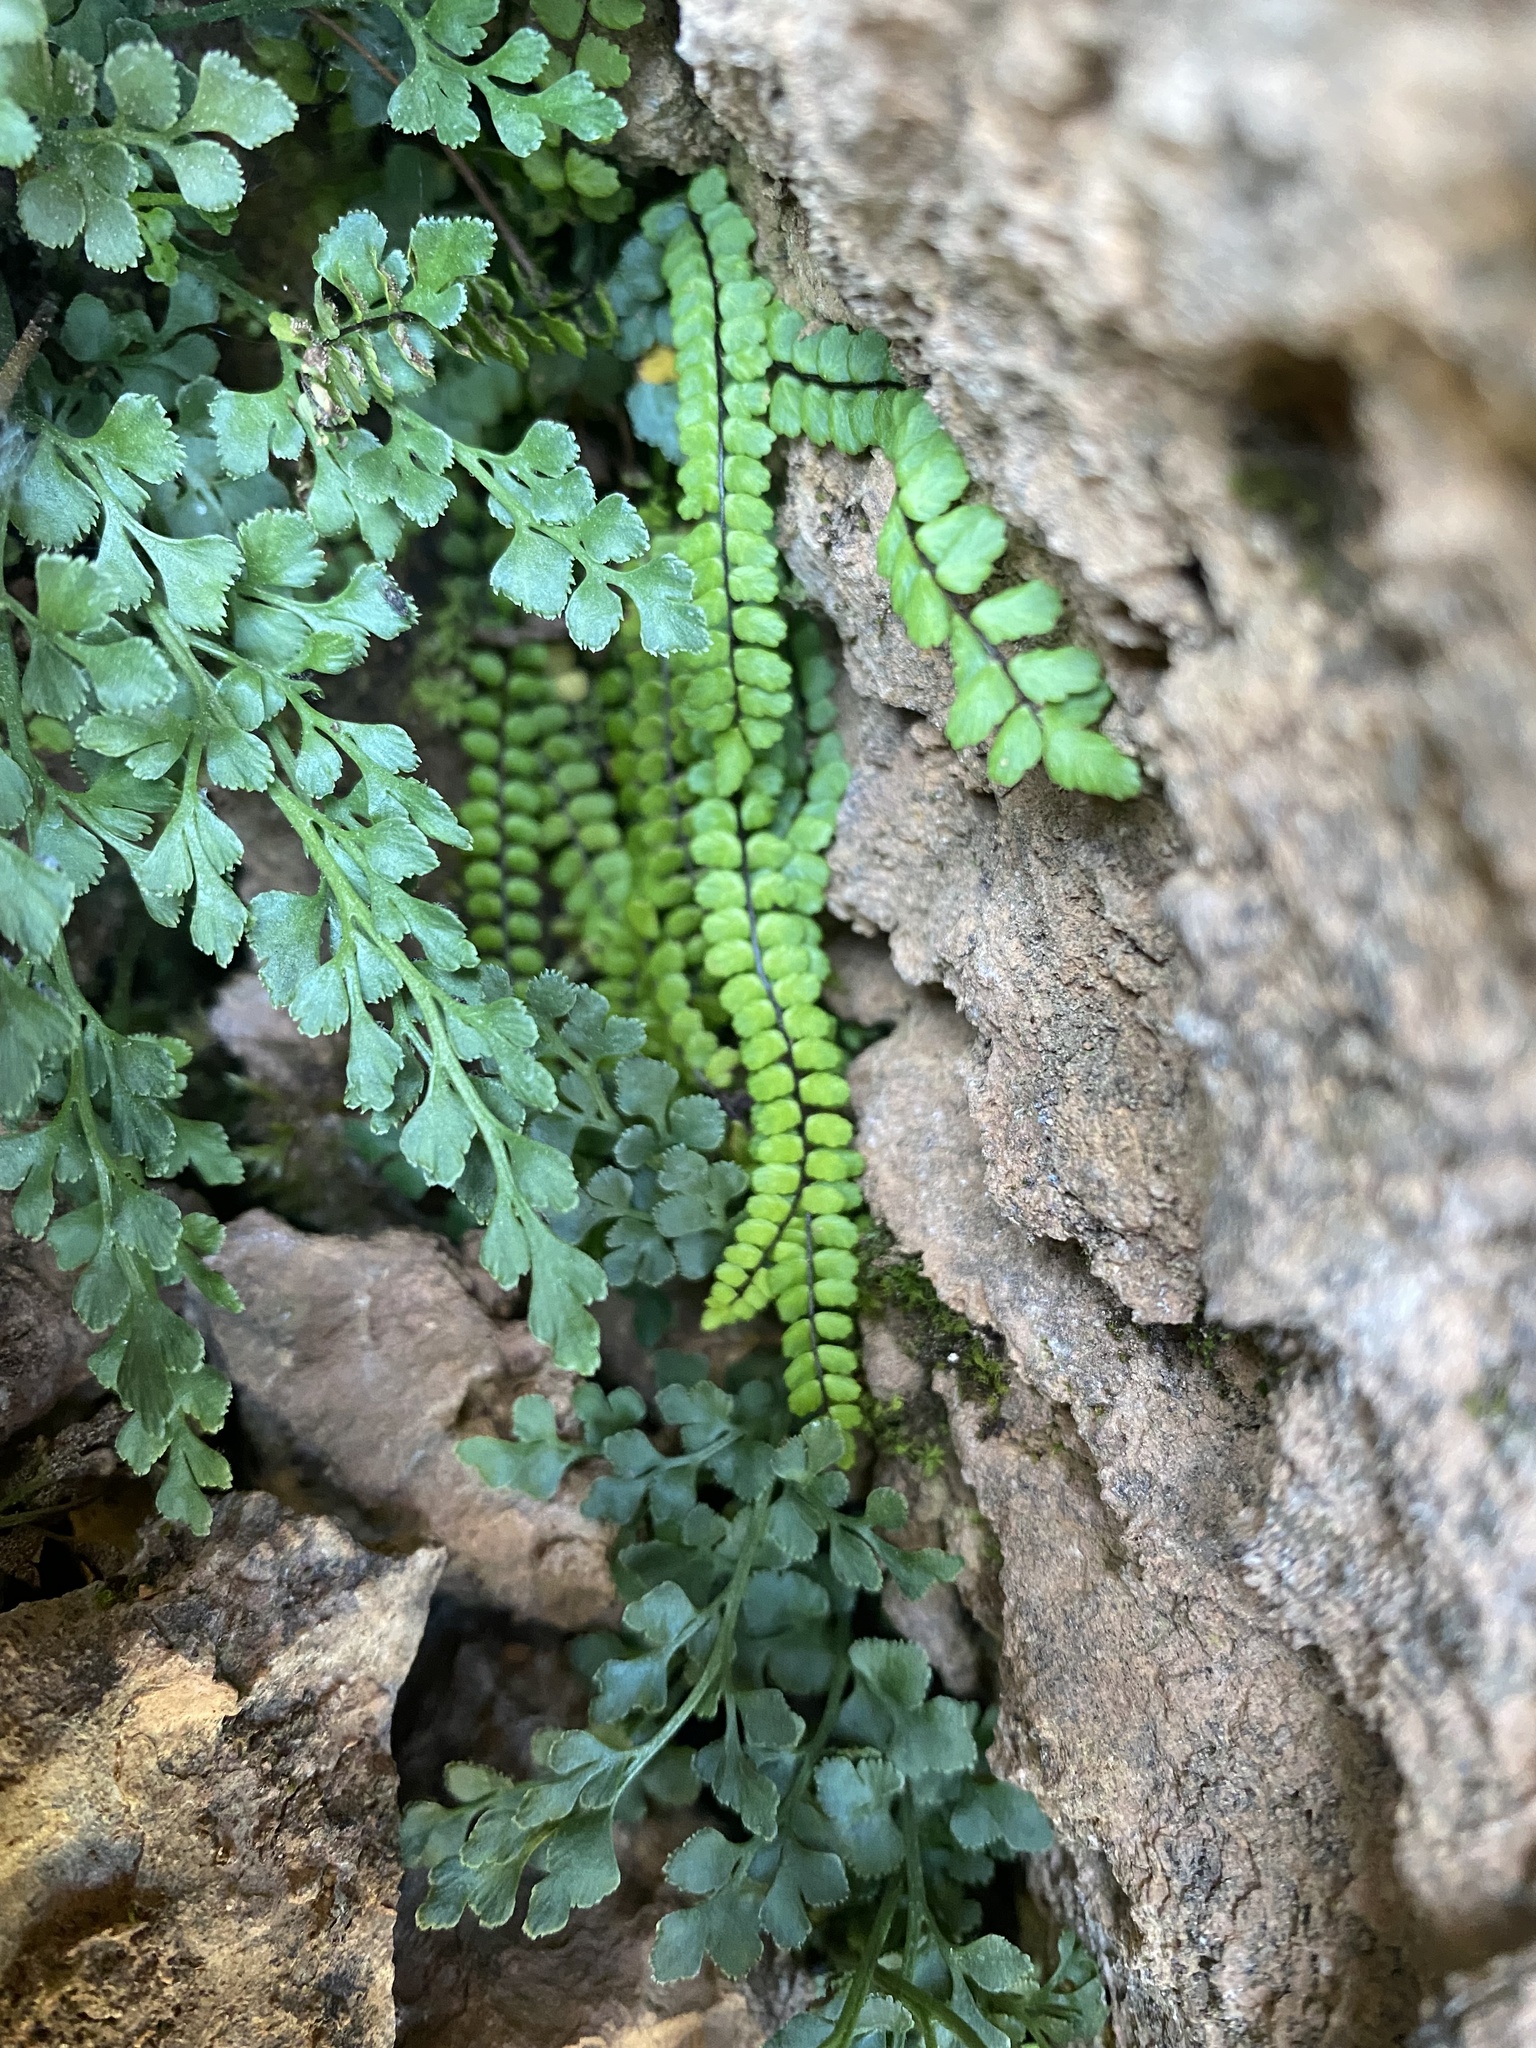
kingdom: Plantae
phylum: Tracheophyta
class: Polypodiopsida
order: Polypodiales
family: Aspleniaceae
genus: Asplenium
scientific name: Asplenium trichomanes
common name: Maidenhair spleenwort
